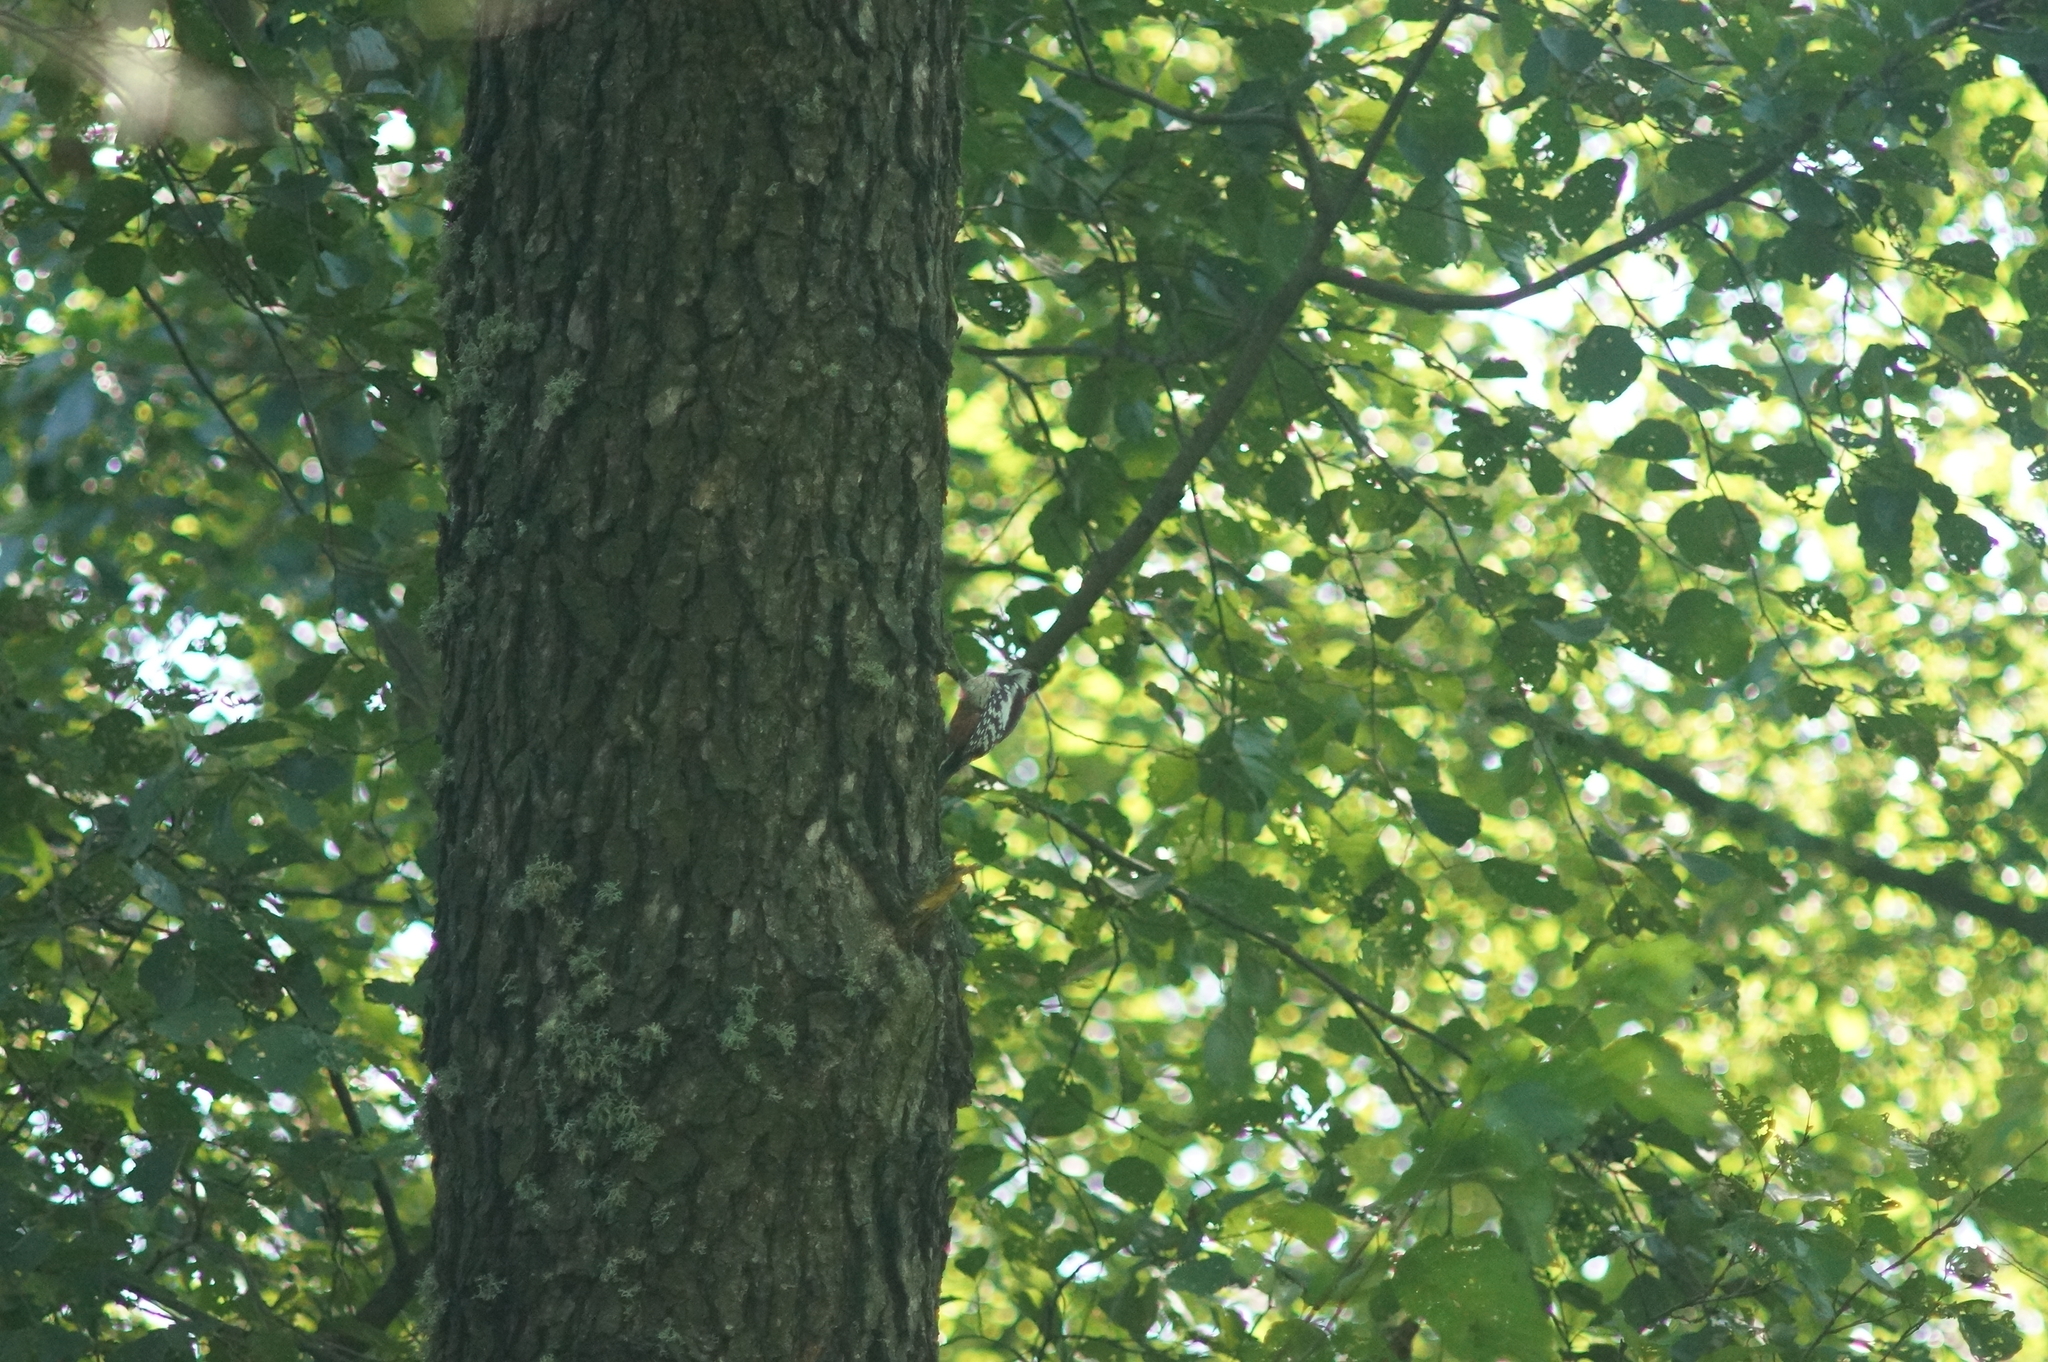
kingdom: Animalia
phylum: Chordata
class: Aves
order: Piciformes
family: Picidae
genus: Dendrocoptes
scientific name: Dendrocoptes medius
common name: Middle spotted woodpecker
